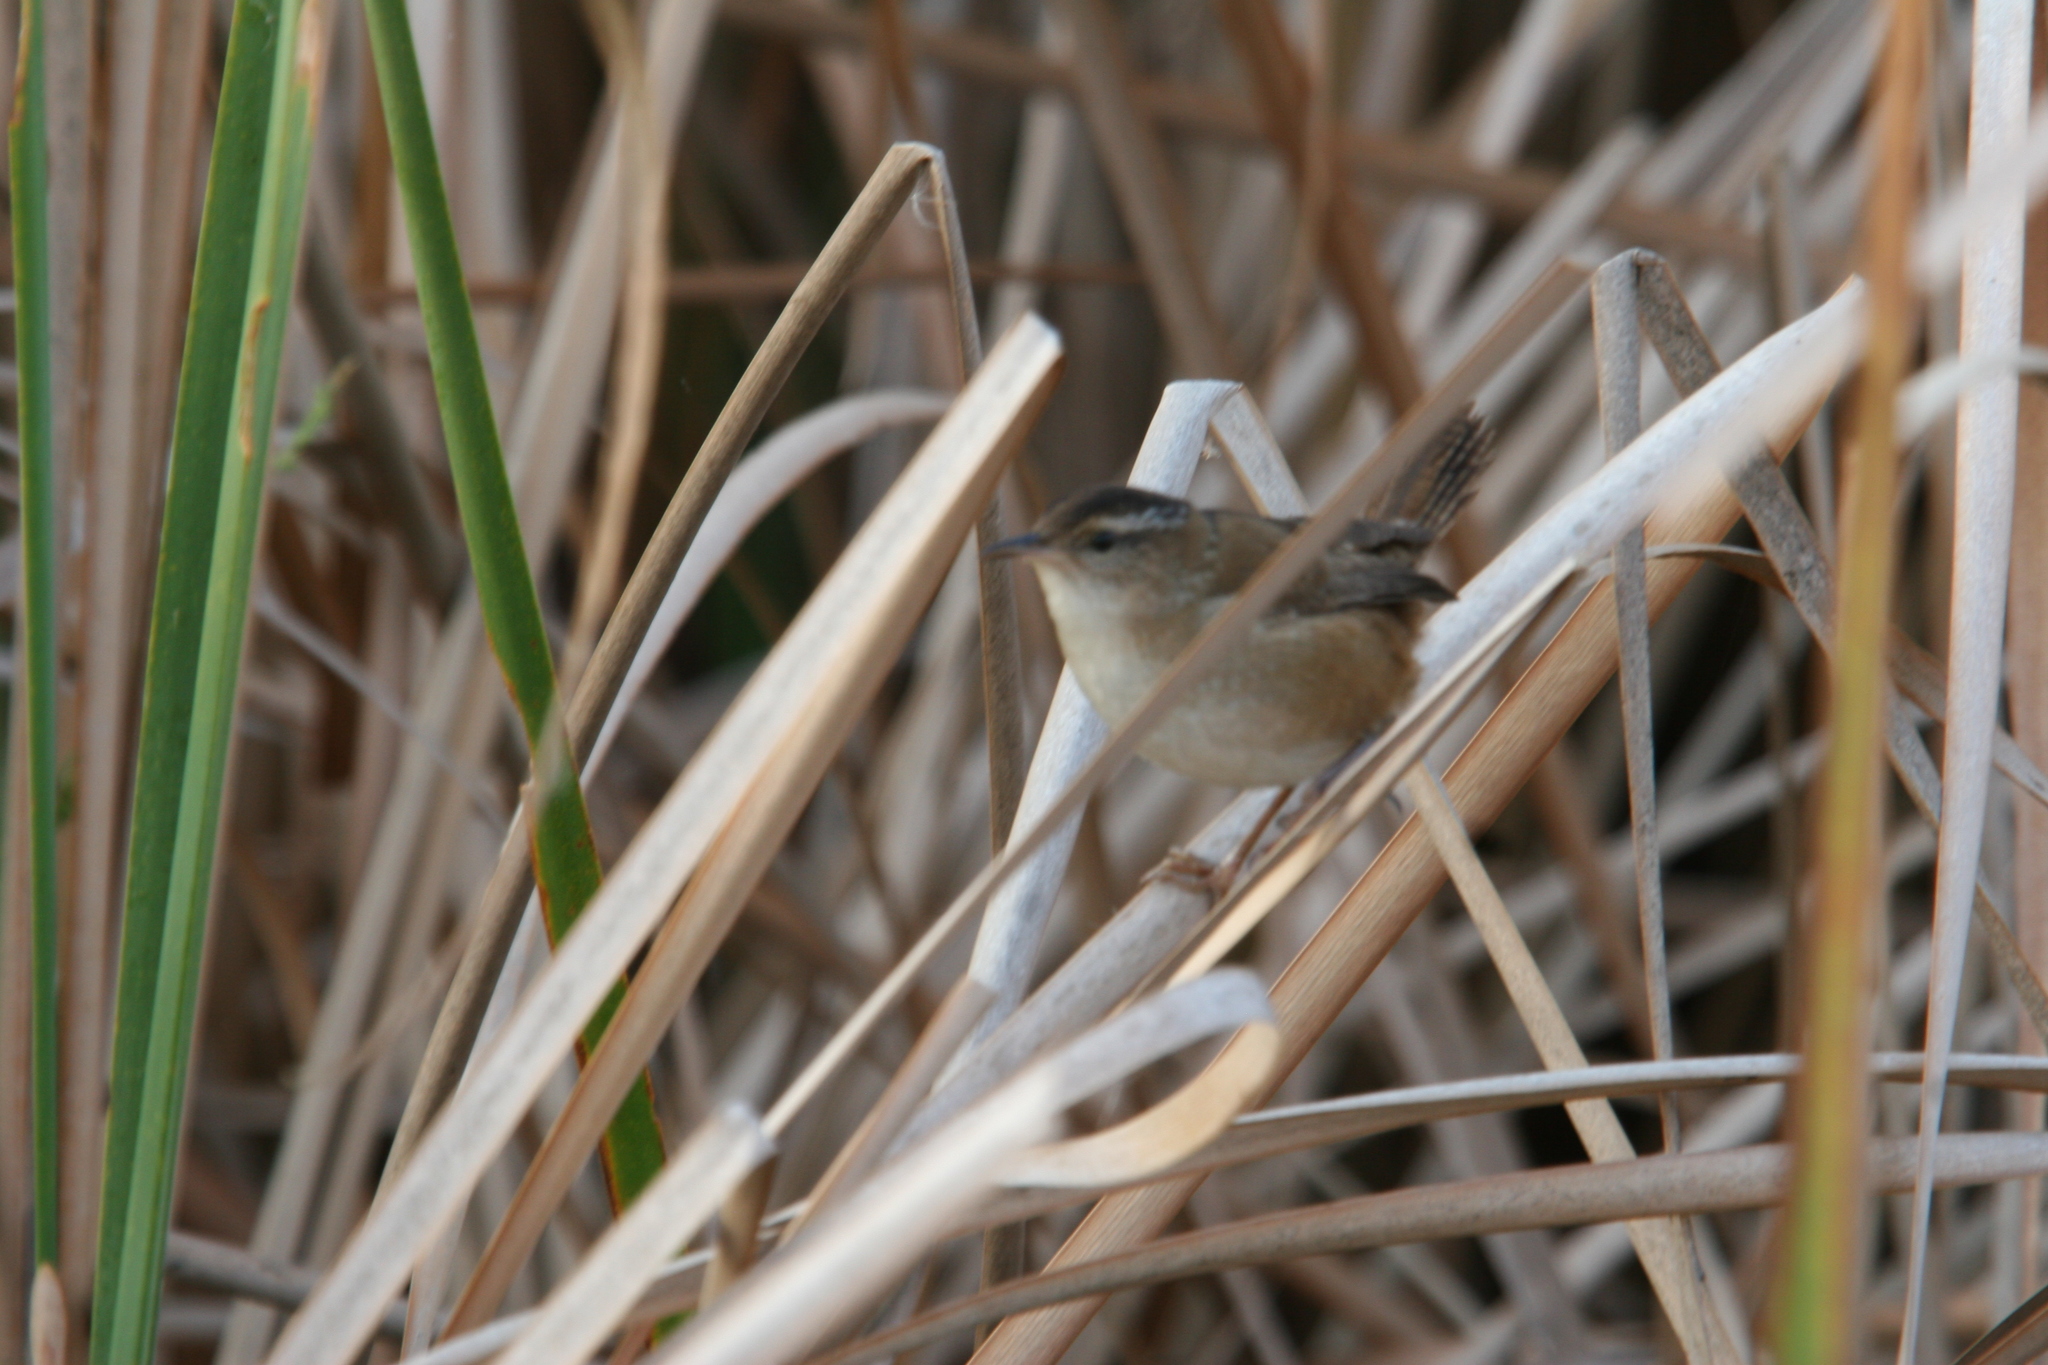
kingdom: Animalia
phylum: Chordata
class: Aves
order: Passeriformes
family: Troglodytidae
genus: Cistothorus
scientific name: Cistothorus palustris
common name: Marsh wren
